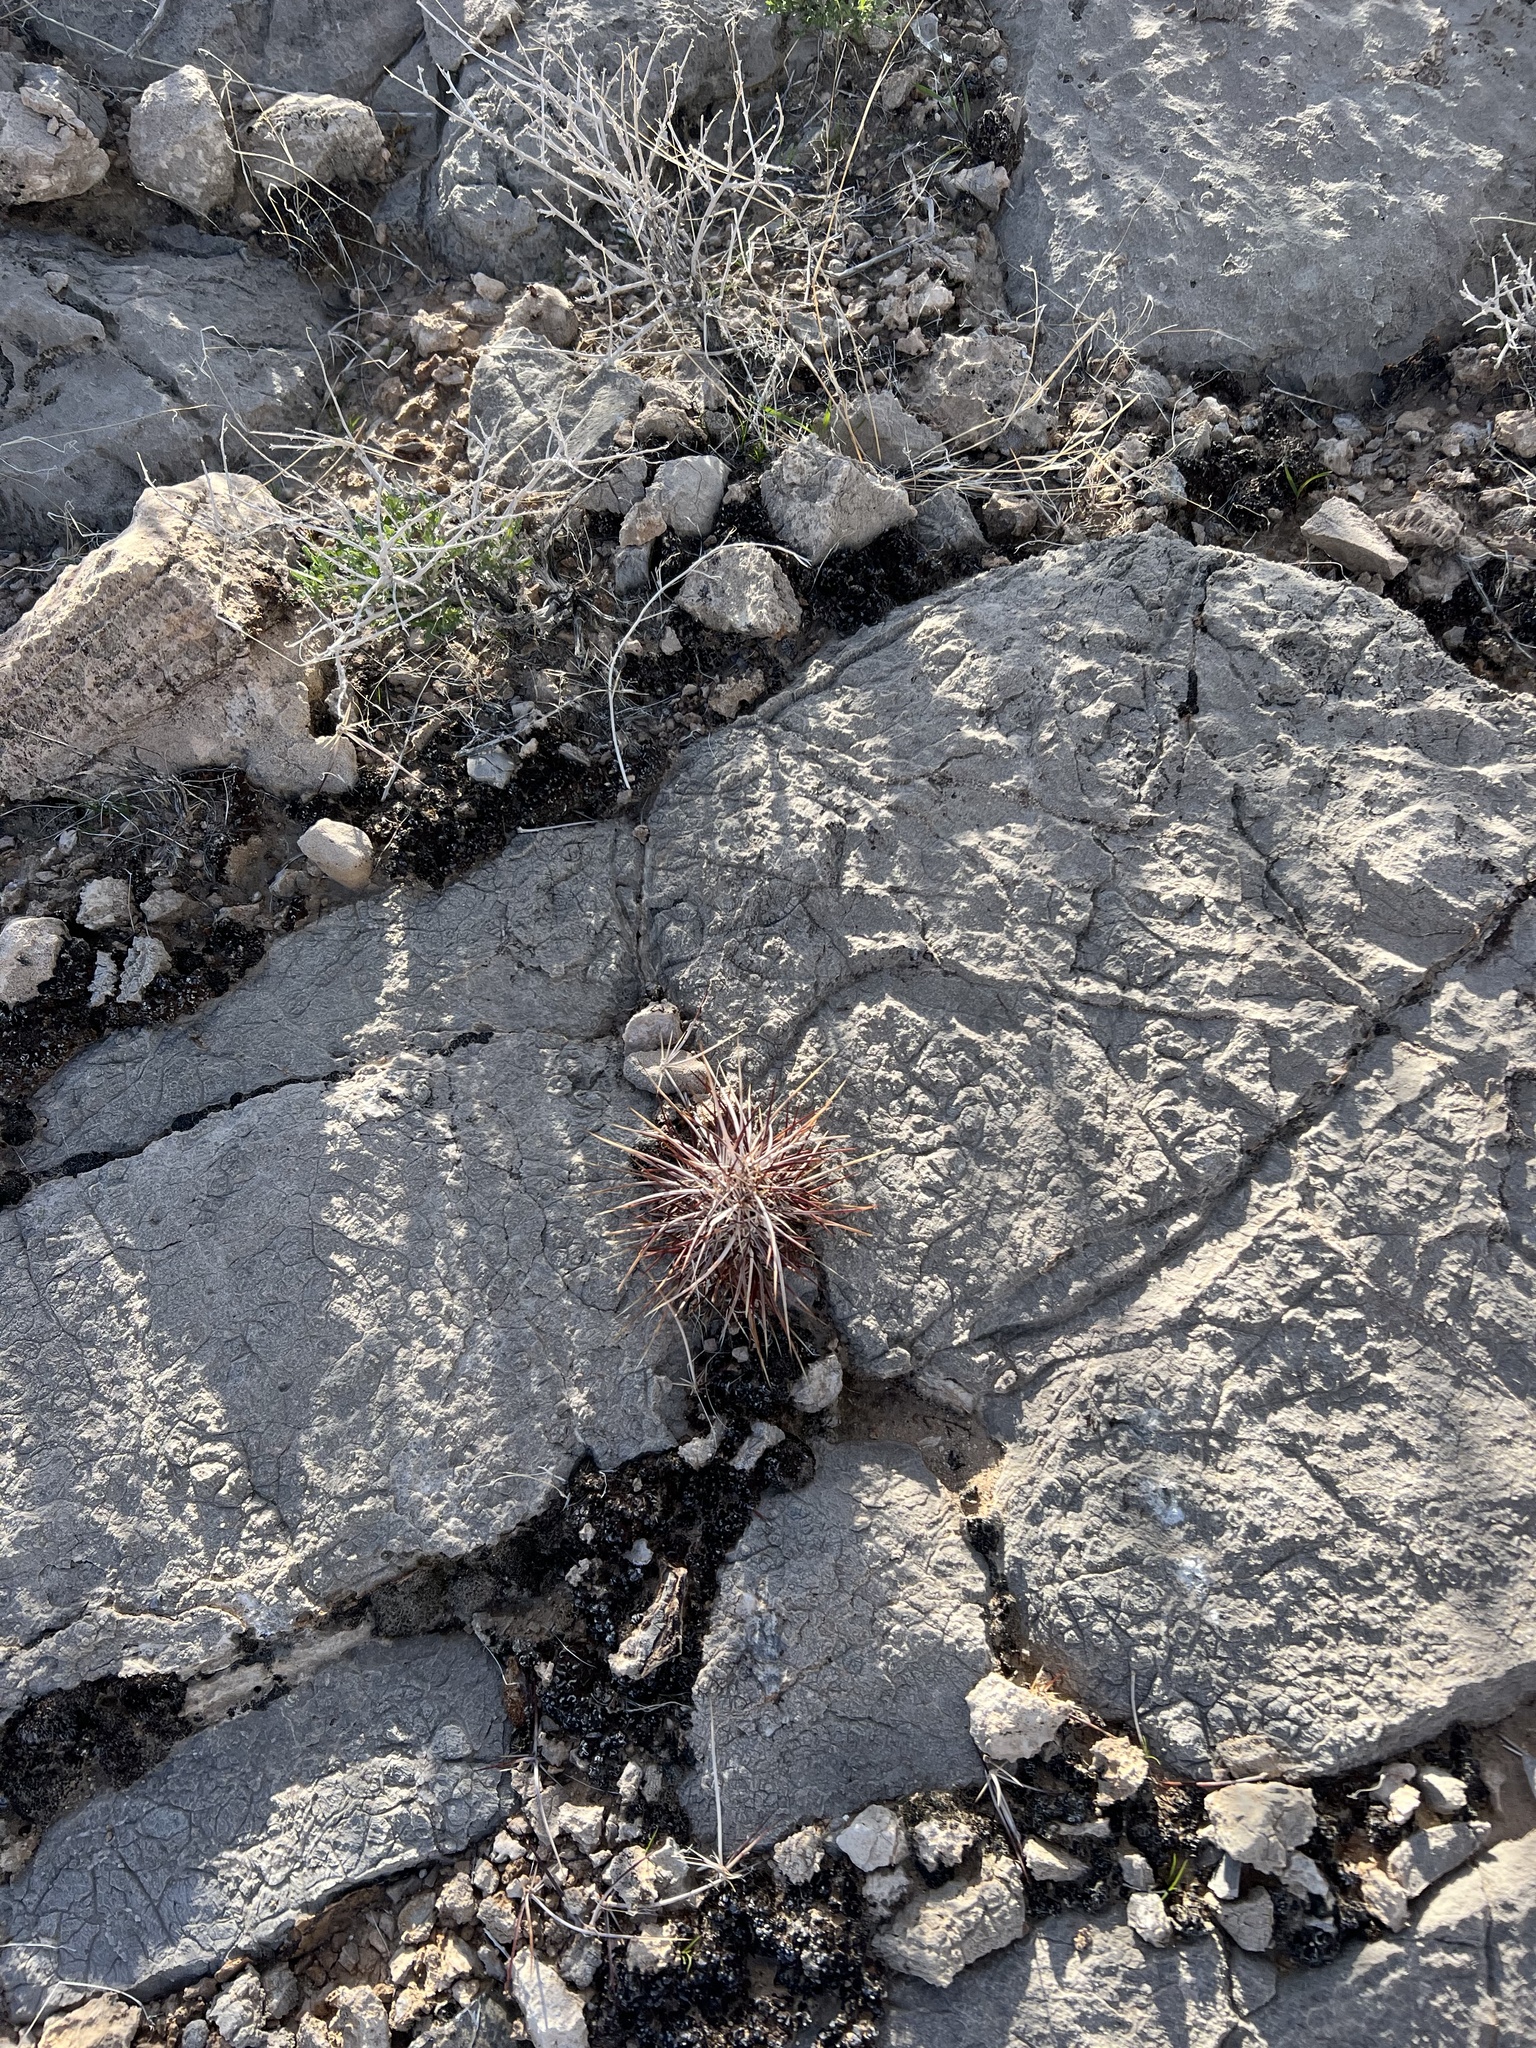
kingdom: Plantae
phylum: Tracheophyta
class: Magnoliopsida
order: Caryophyllales
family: Cactaceae
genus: Echinocereus
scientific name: Echinocereus engelmannii
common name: Engelmann's hedgehog cactus
